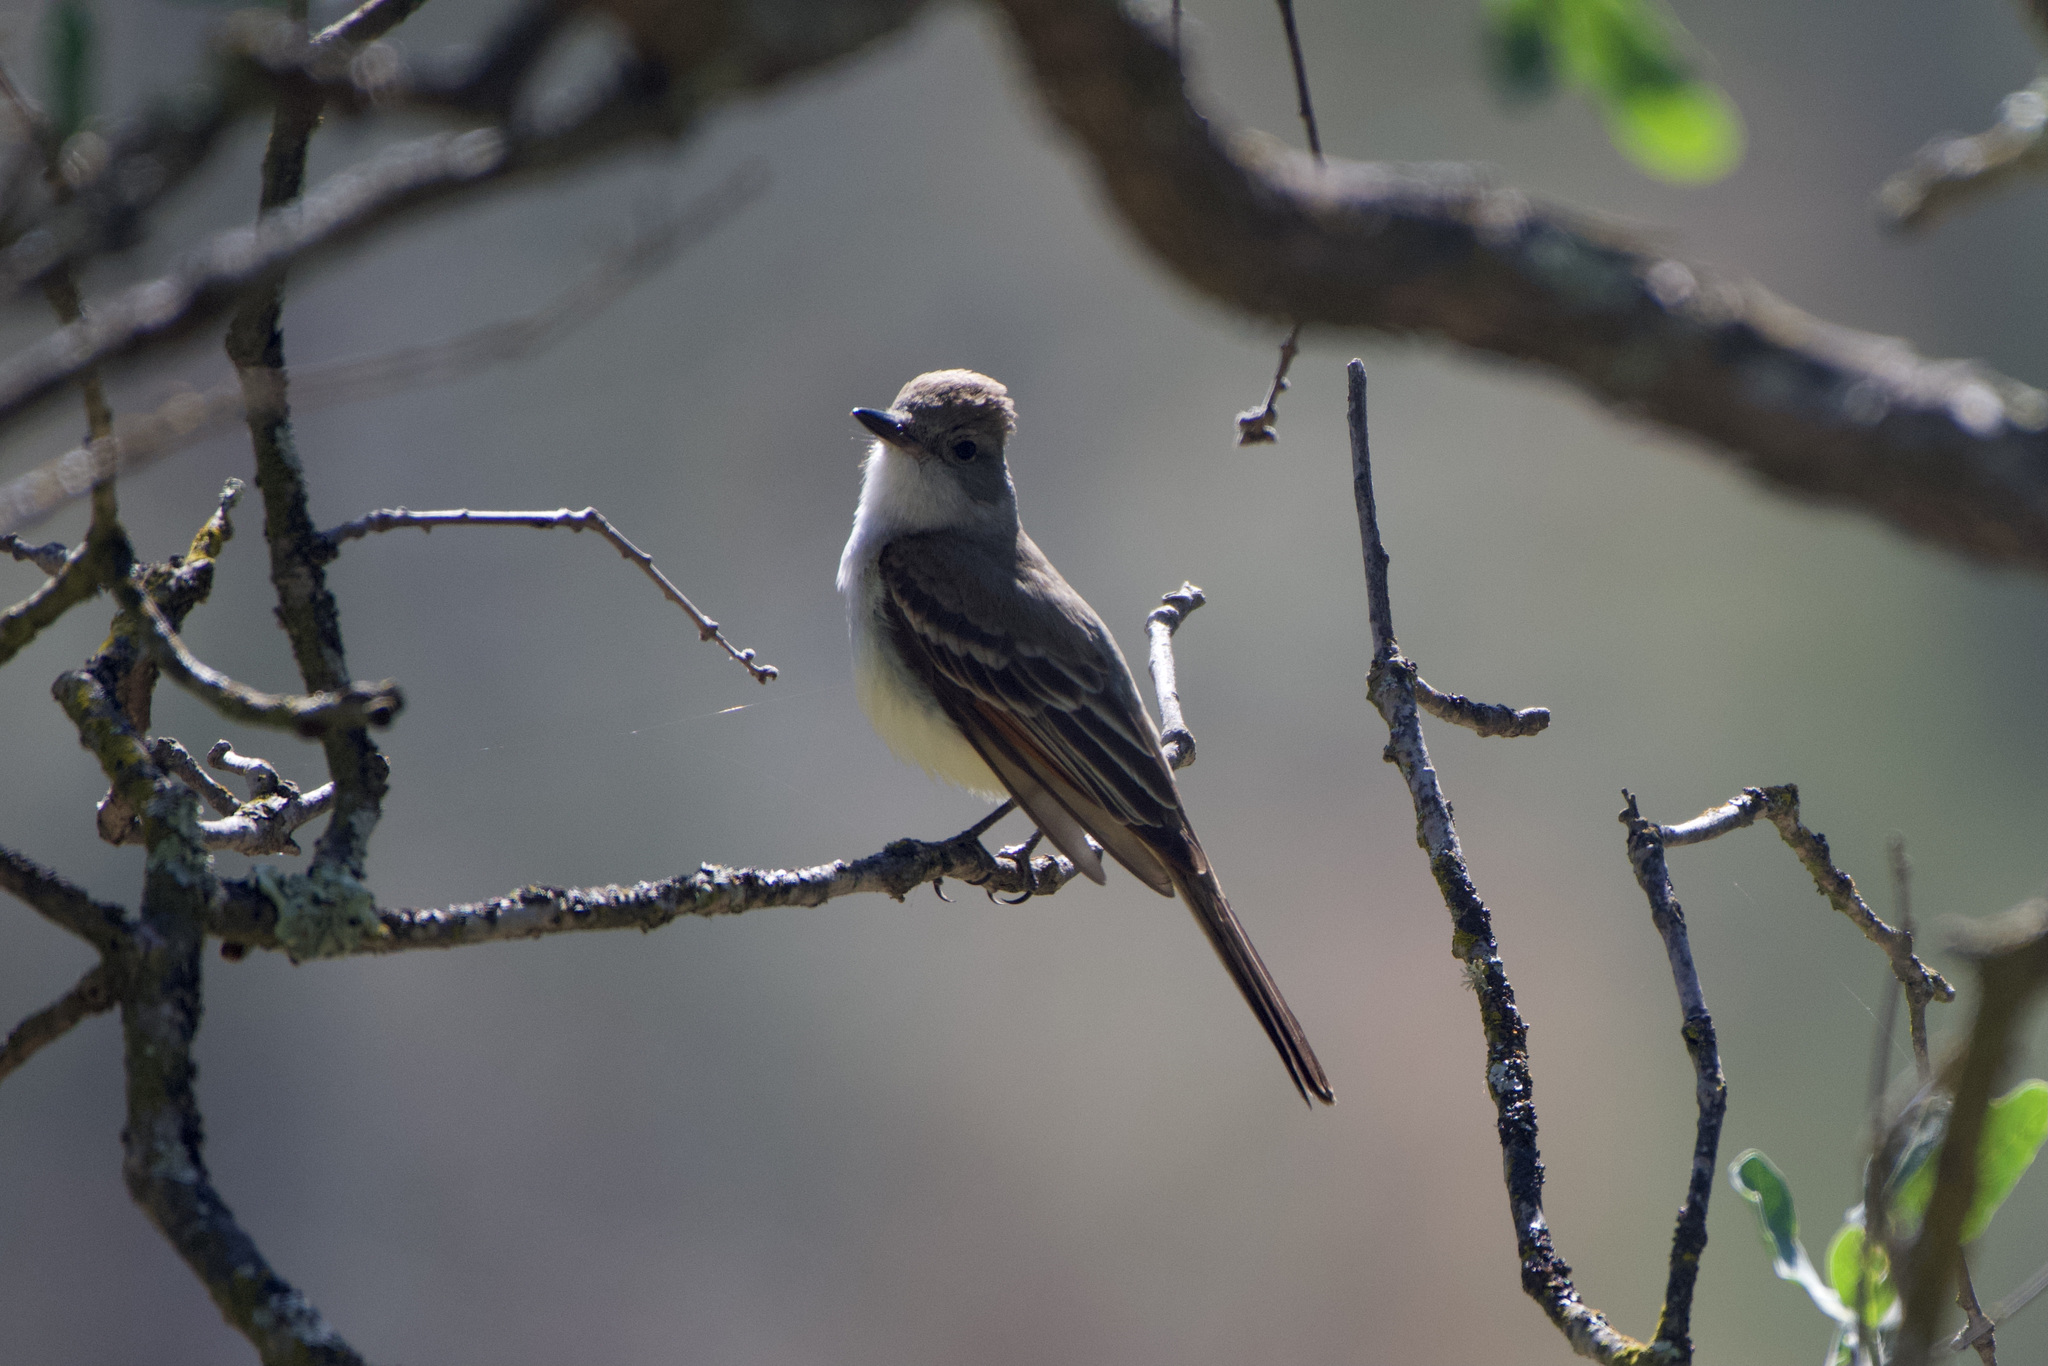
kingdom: Animalia
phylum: Chordata
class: Aves
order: Passeriformes
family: Tyrannidae
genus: Myiarchus
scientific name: Myiarchus cinerascens
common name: Ash-throated flycatcher
